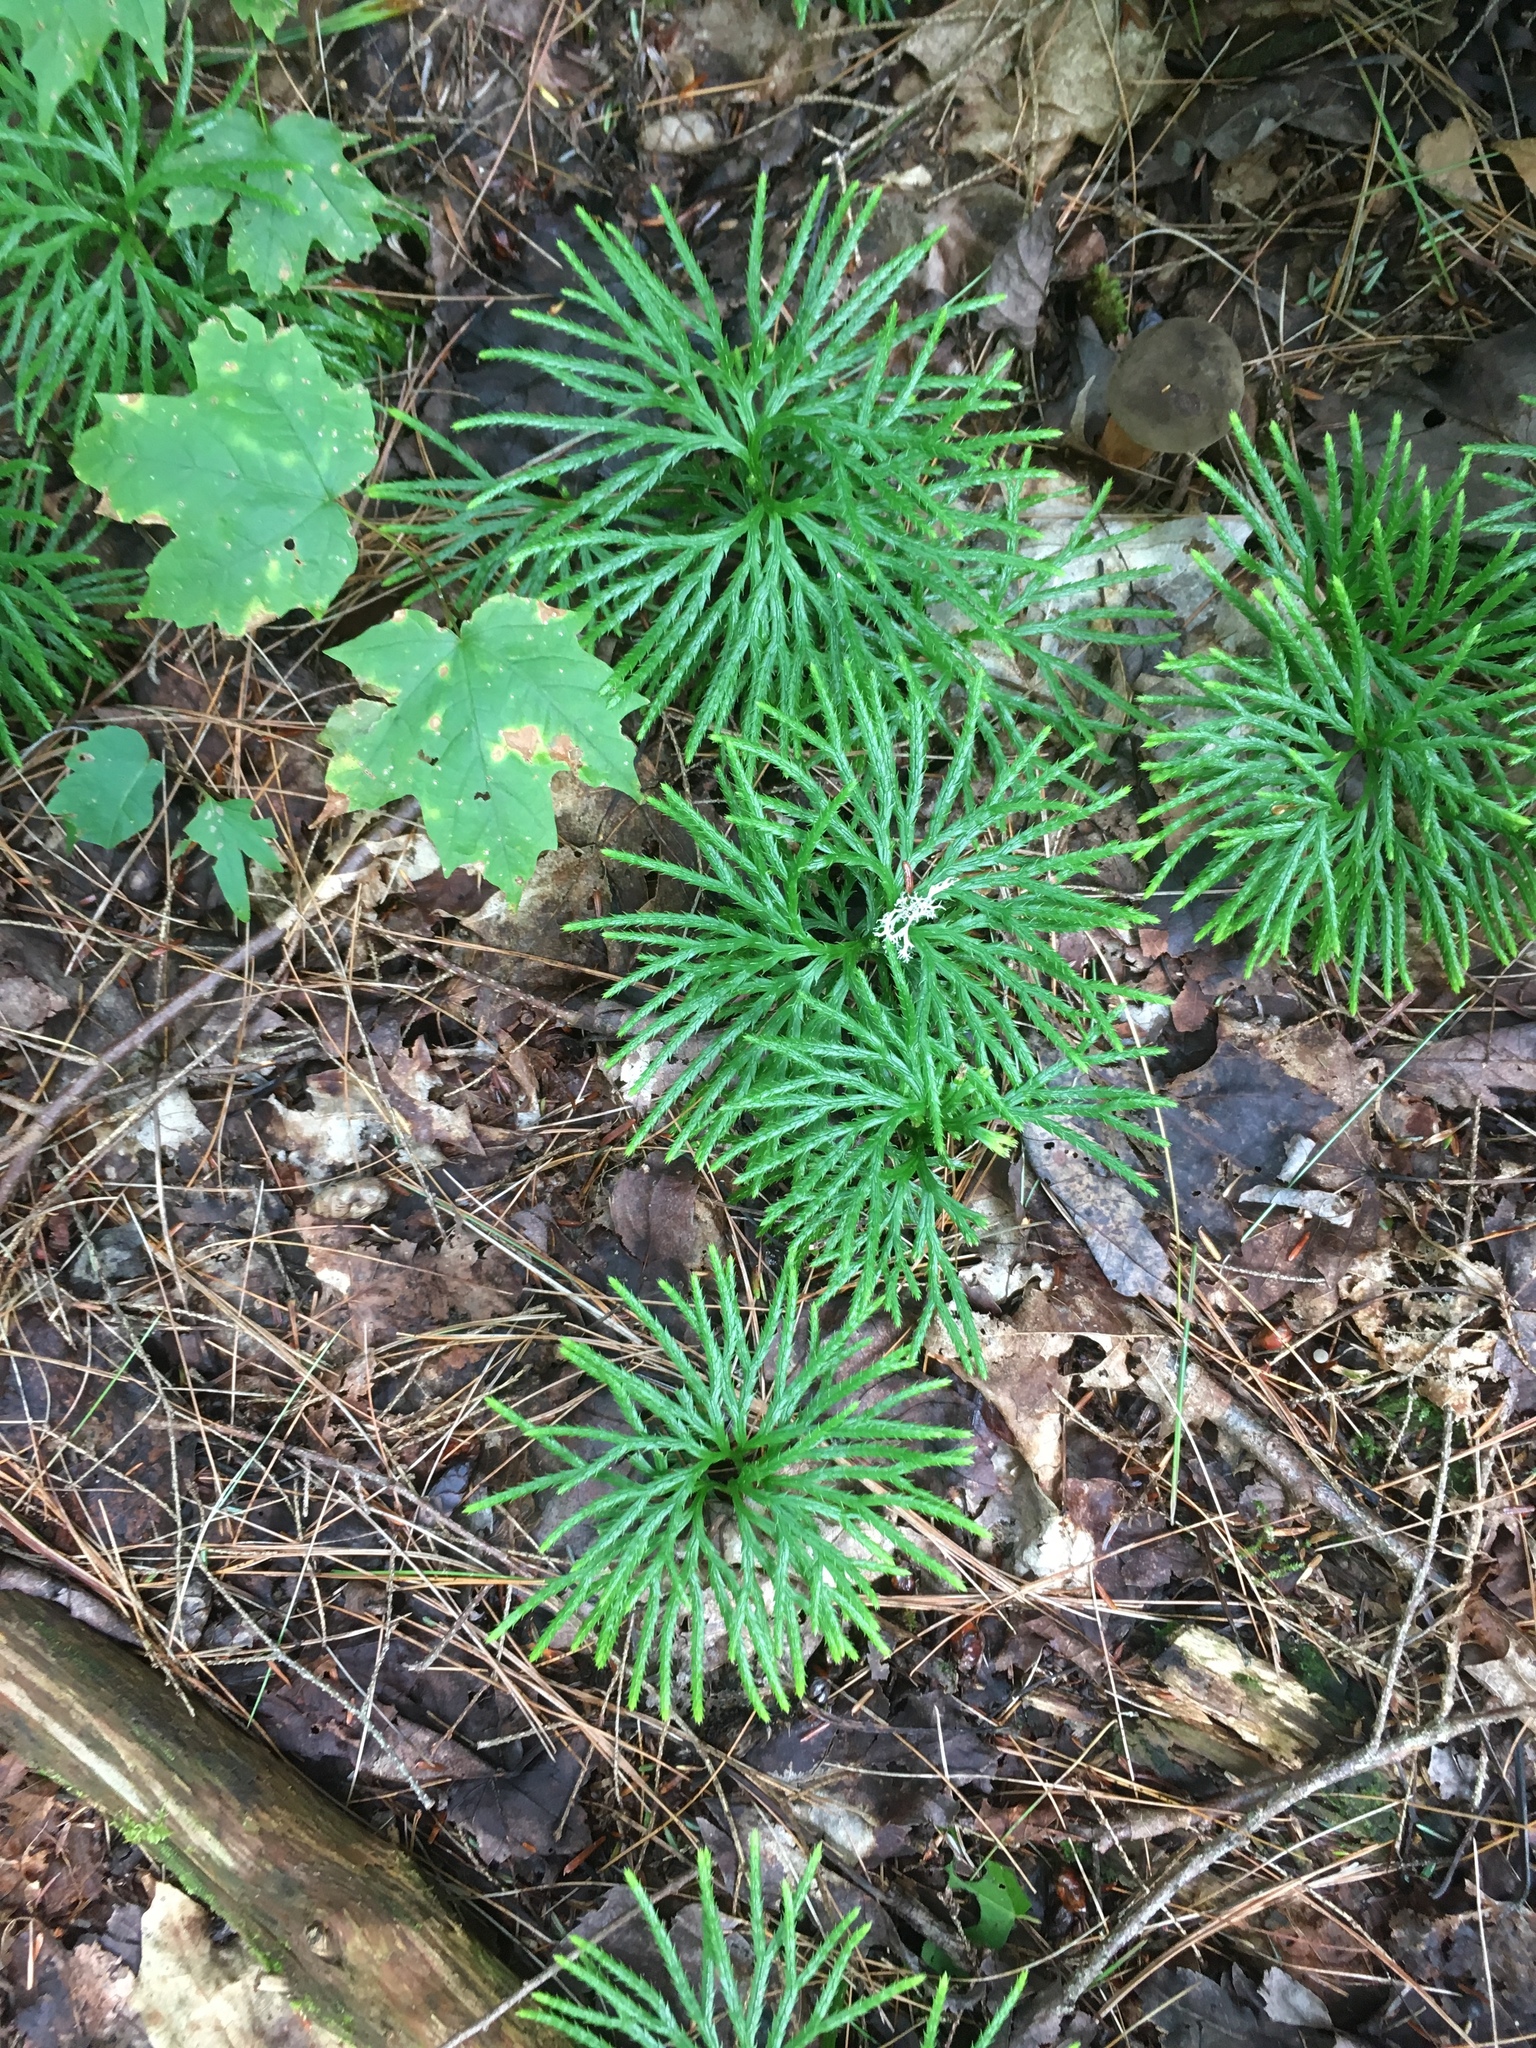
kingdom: Plantae
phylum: Tracheophyta
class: Lycopodiopsida
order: Lycopodiales
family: Lycopodiaceae
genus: Diphasiastrum
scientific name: Diphasiastrum digitatum
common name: Southern running-pine
